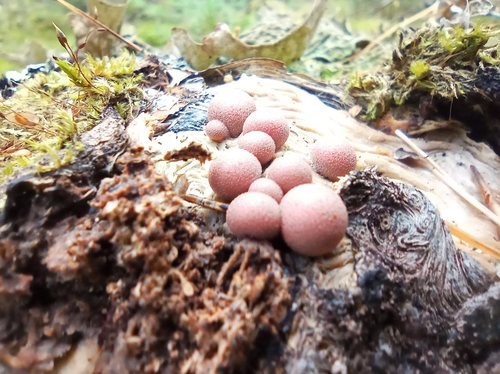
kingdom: Protozoa
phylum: Mycetozoa
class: Myxomycetes
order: Cribrariales
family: Tubiferaceae
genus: Lycogala
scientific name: Lycogala epidendrum
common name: Wolf's milk
